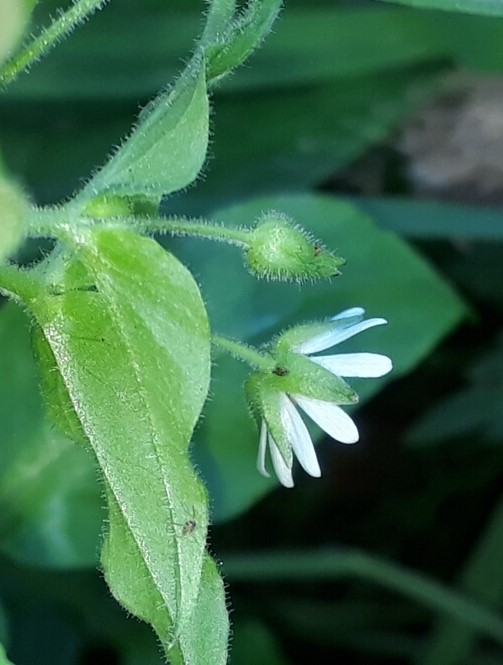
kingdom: Plantae
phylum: Tracheophyta
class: Magnoliopsida
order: Caryophyllales
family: Caryophyllaceae
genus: Stellaria
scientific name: Stellaria aquatica
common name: Water chickweed
